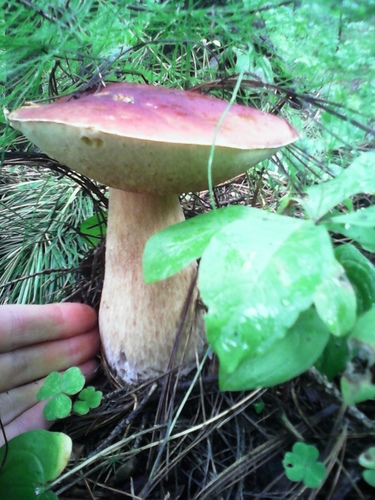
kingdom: Fungi
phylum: Basidiomycota
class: Agaricomycetes
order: Boletales
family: Boletaceae
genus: Boletus
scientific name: Boletus edulis
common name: Cep
